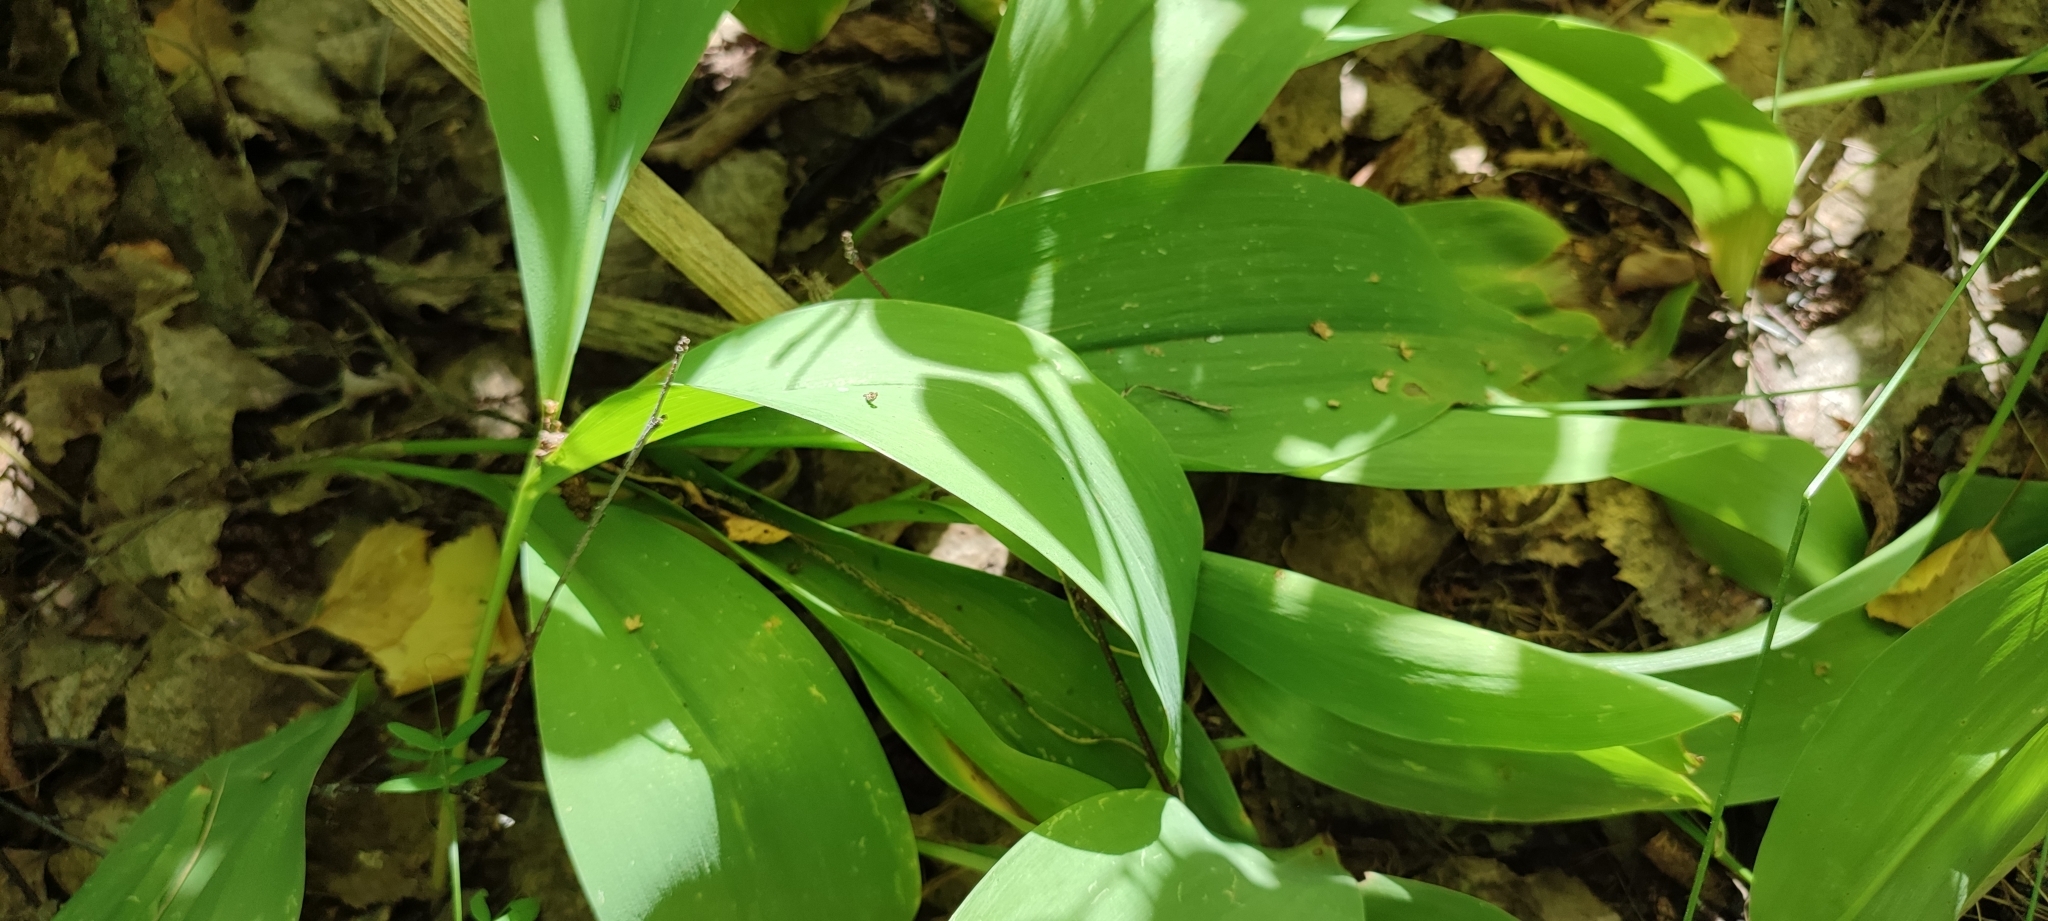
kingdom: Plantae
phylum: Tracheophyta
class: Liliopsida
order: Asparagales
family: Asparagaceae
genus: Convallaria
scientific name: Convallaria majalis
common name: Lily-of-the-valley
